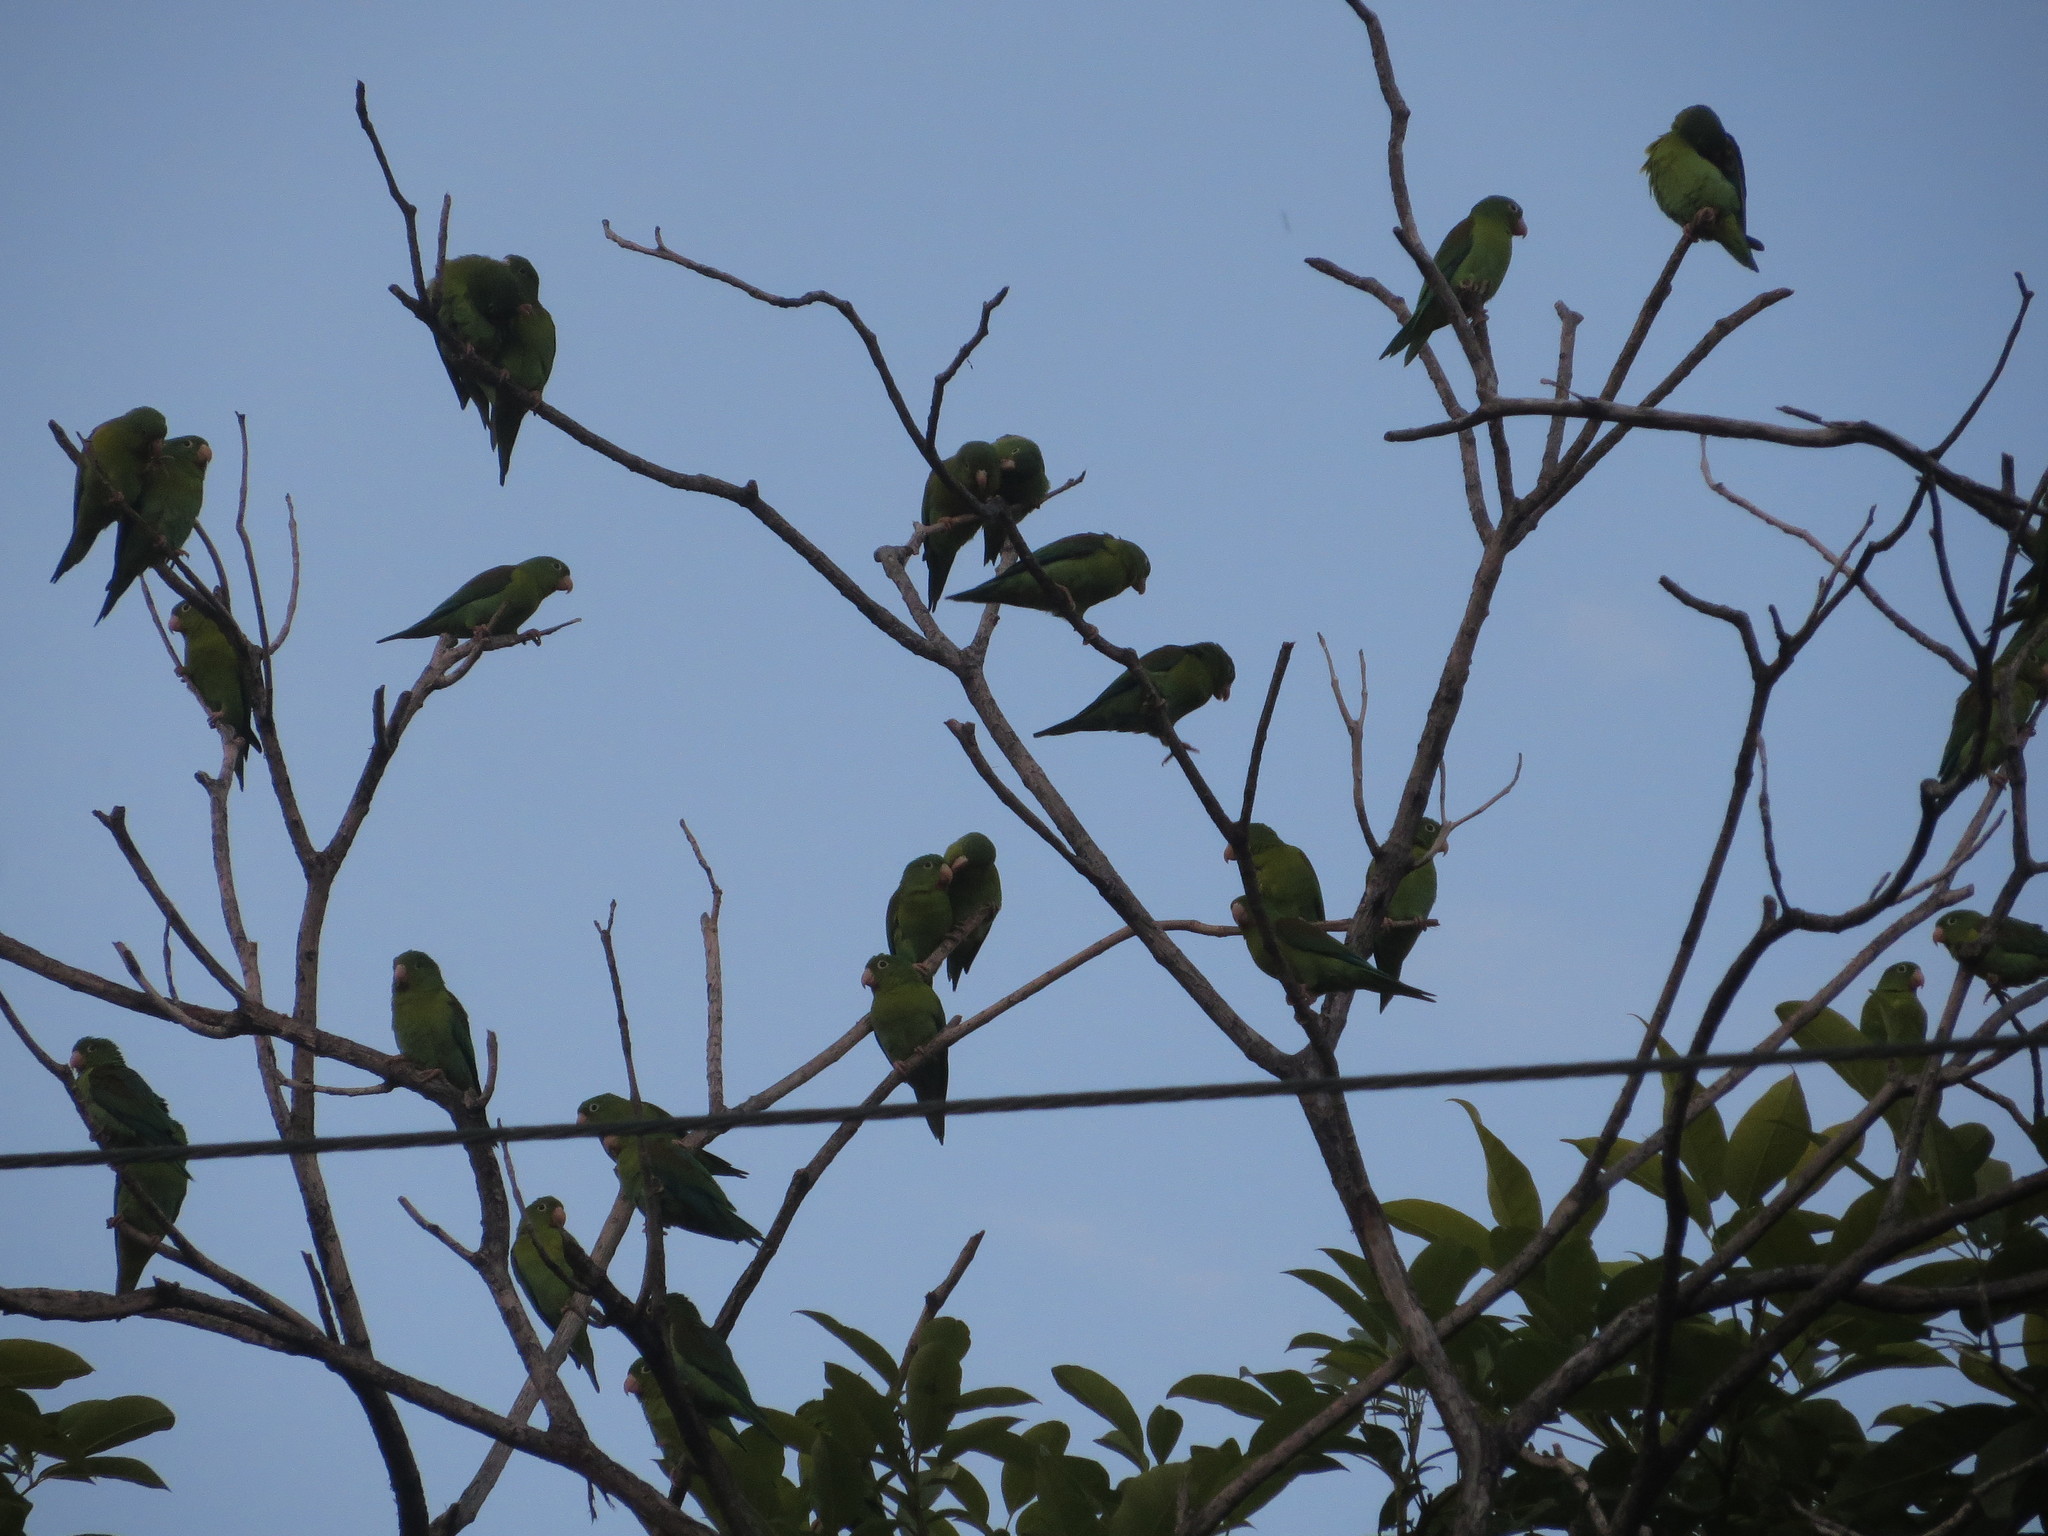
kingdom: Animalia
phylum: Chordata
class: Aves
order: Psittaciformes
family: Psittacidae
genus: Brotogeris
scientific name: Brotogeris jugularis
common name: Orange-chinned parakeet
